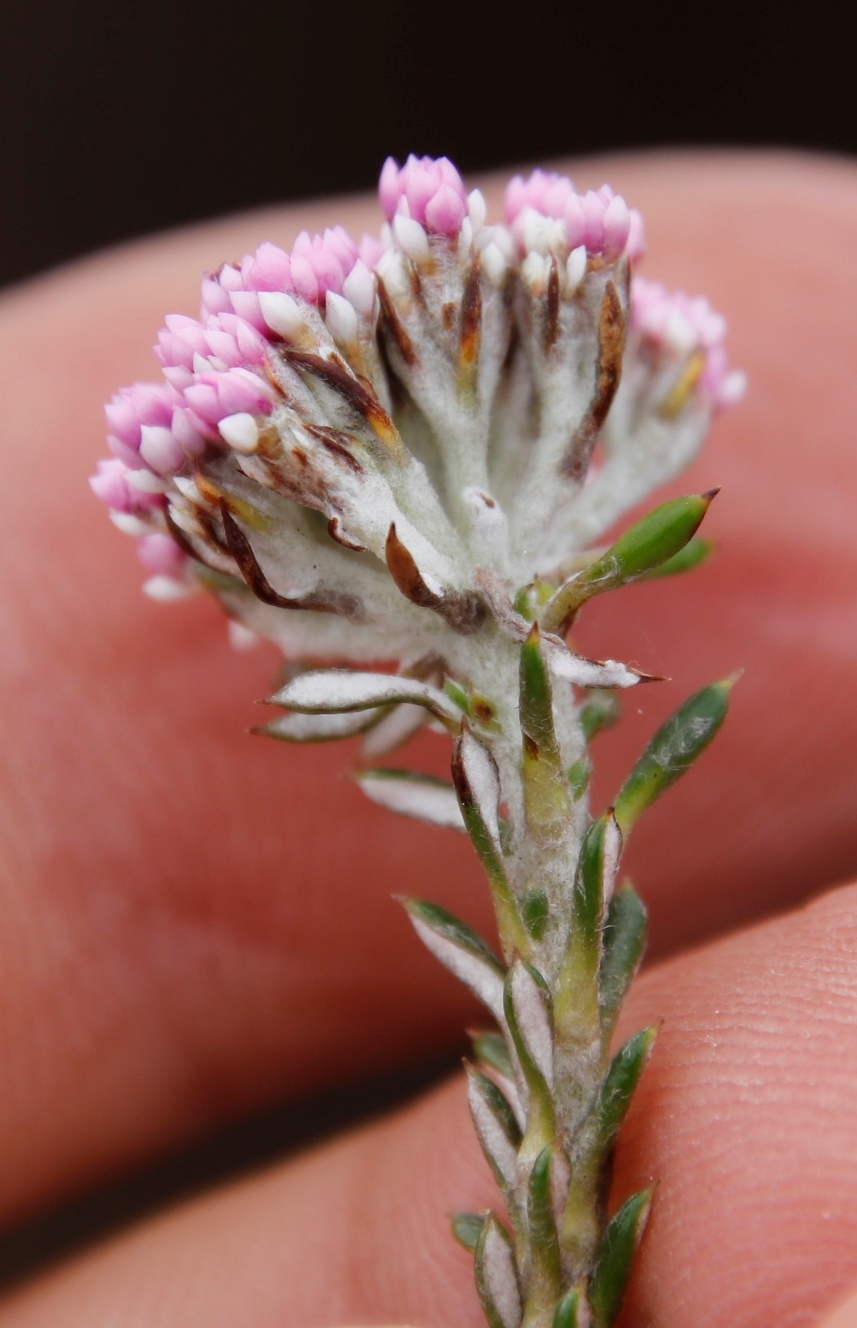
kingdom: Plantae
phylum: Tracheophyta
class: Magnoliopsida
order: Asterales
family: Asteraceae
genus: Metalasia
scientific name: Metalasia serrata
